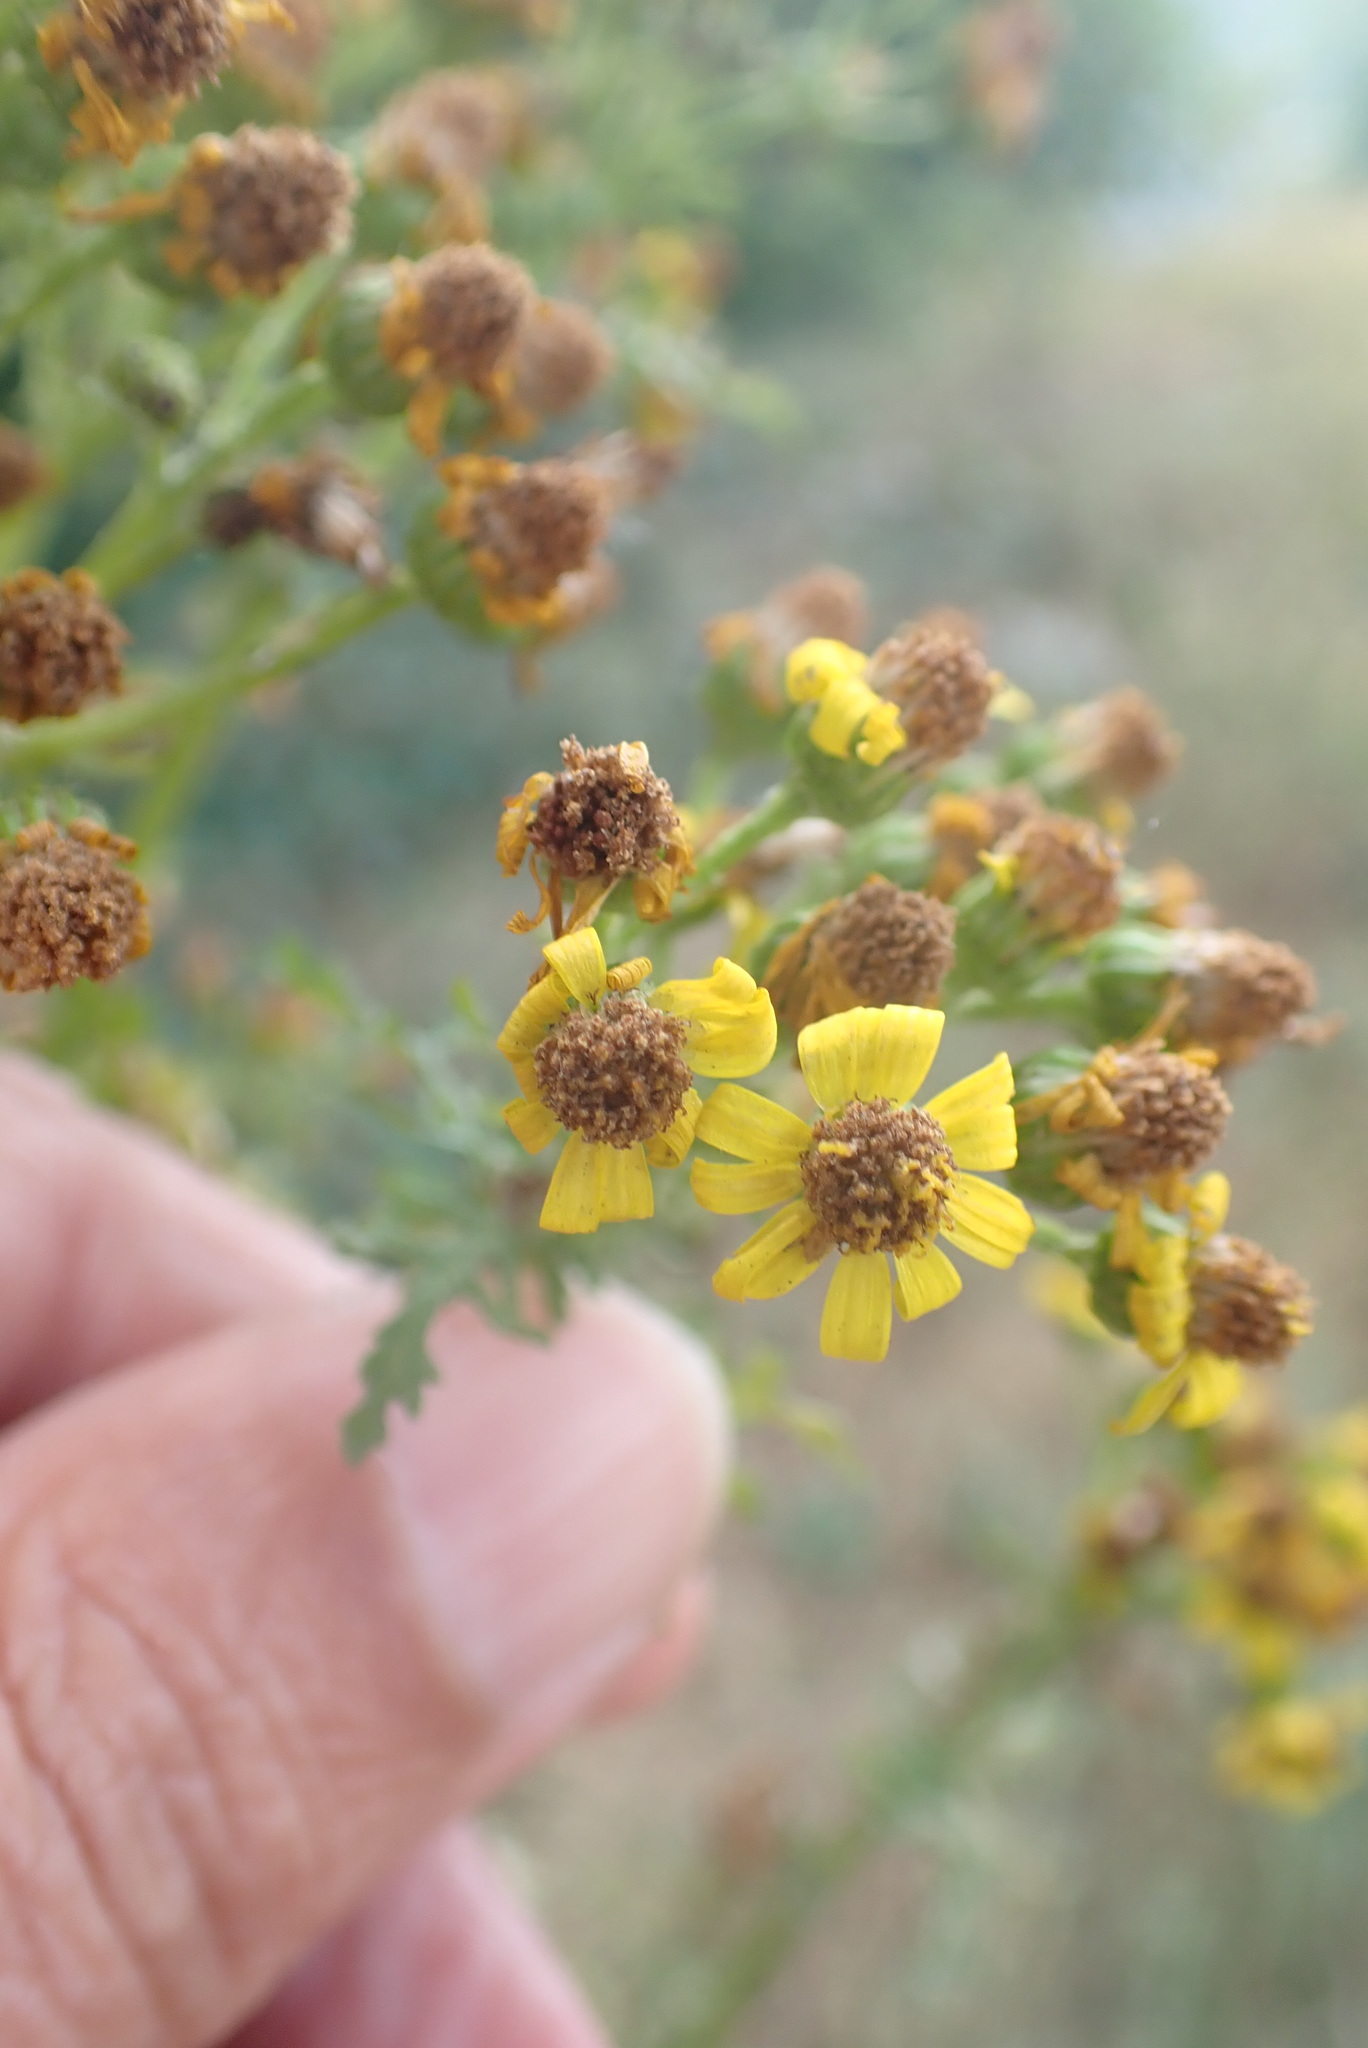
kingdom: Plantae
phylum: Tracheophyta
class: Magnoliopsida
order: Asterales
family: Asteraceae
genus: Jacobaea
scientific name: Jacobaea vulgaris
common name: Stinking willie
